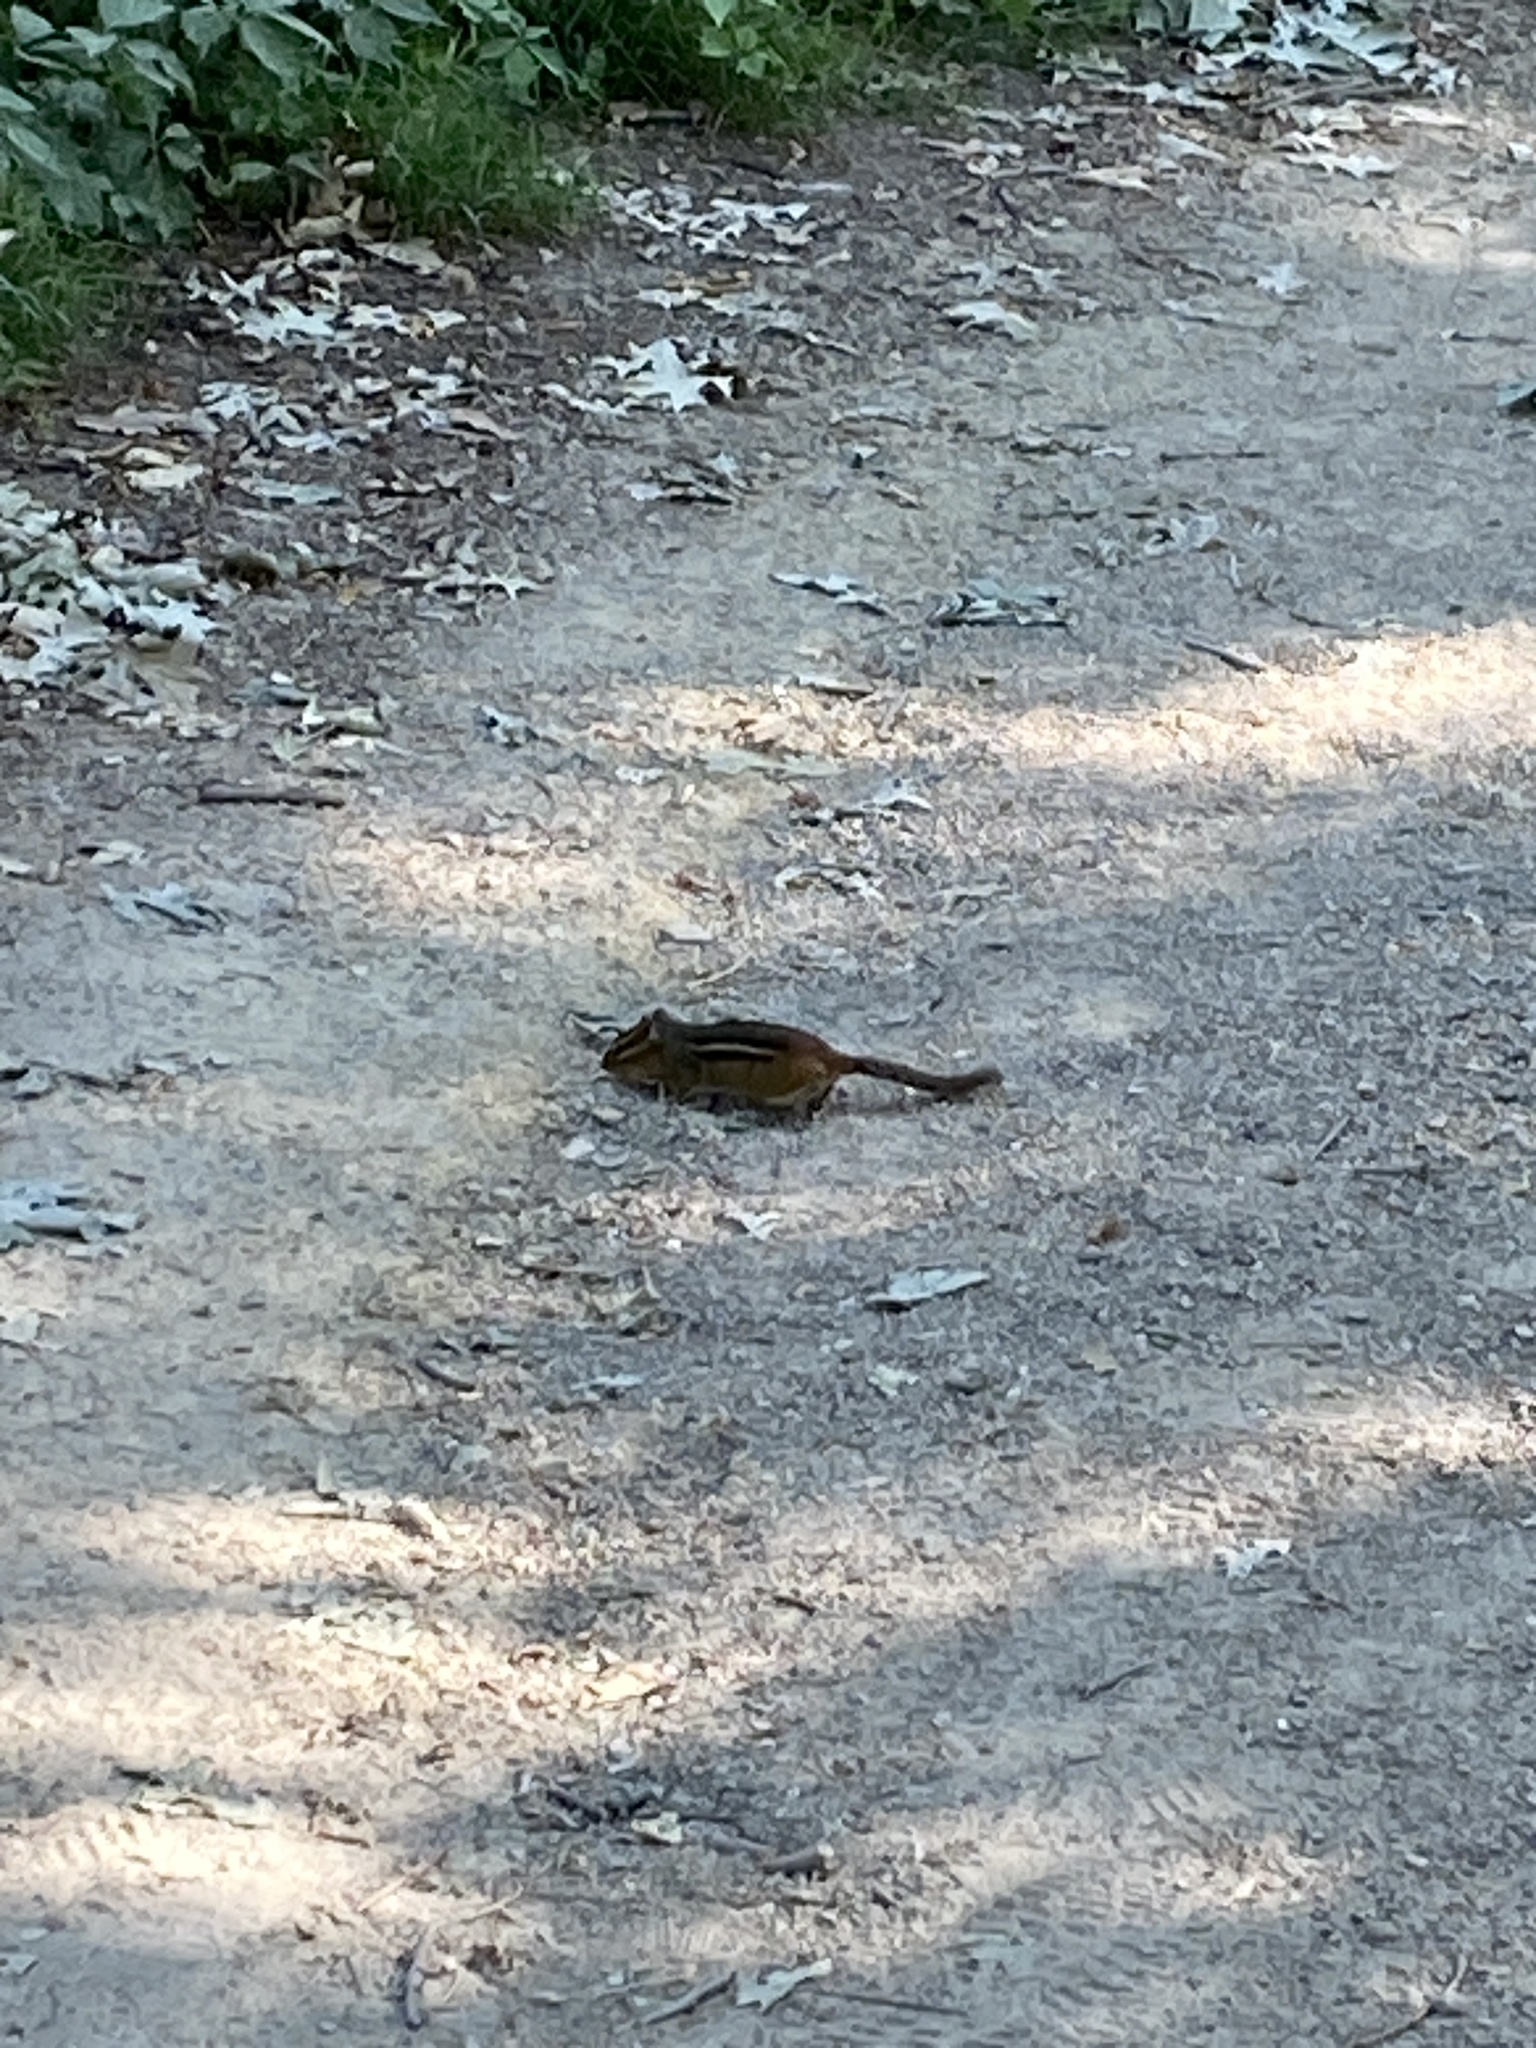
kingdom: Animalia
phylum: Chordata
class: Mammalia
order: Rodentia
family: Sciuridae
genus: Tamias
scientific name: Tamias striatus
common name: Eastern chipmunk
